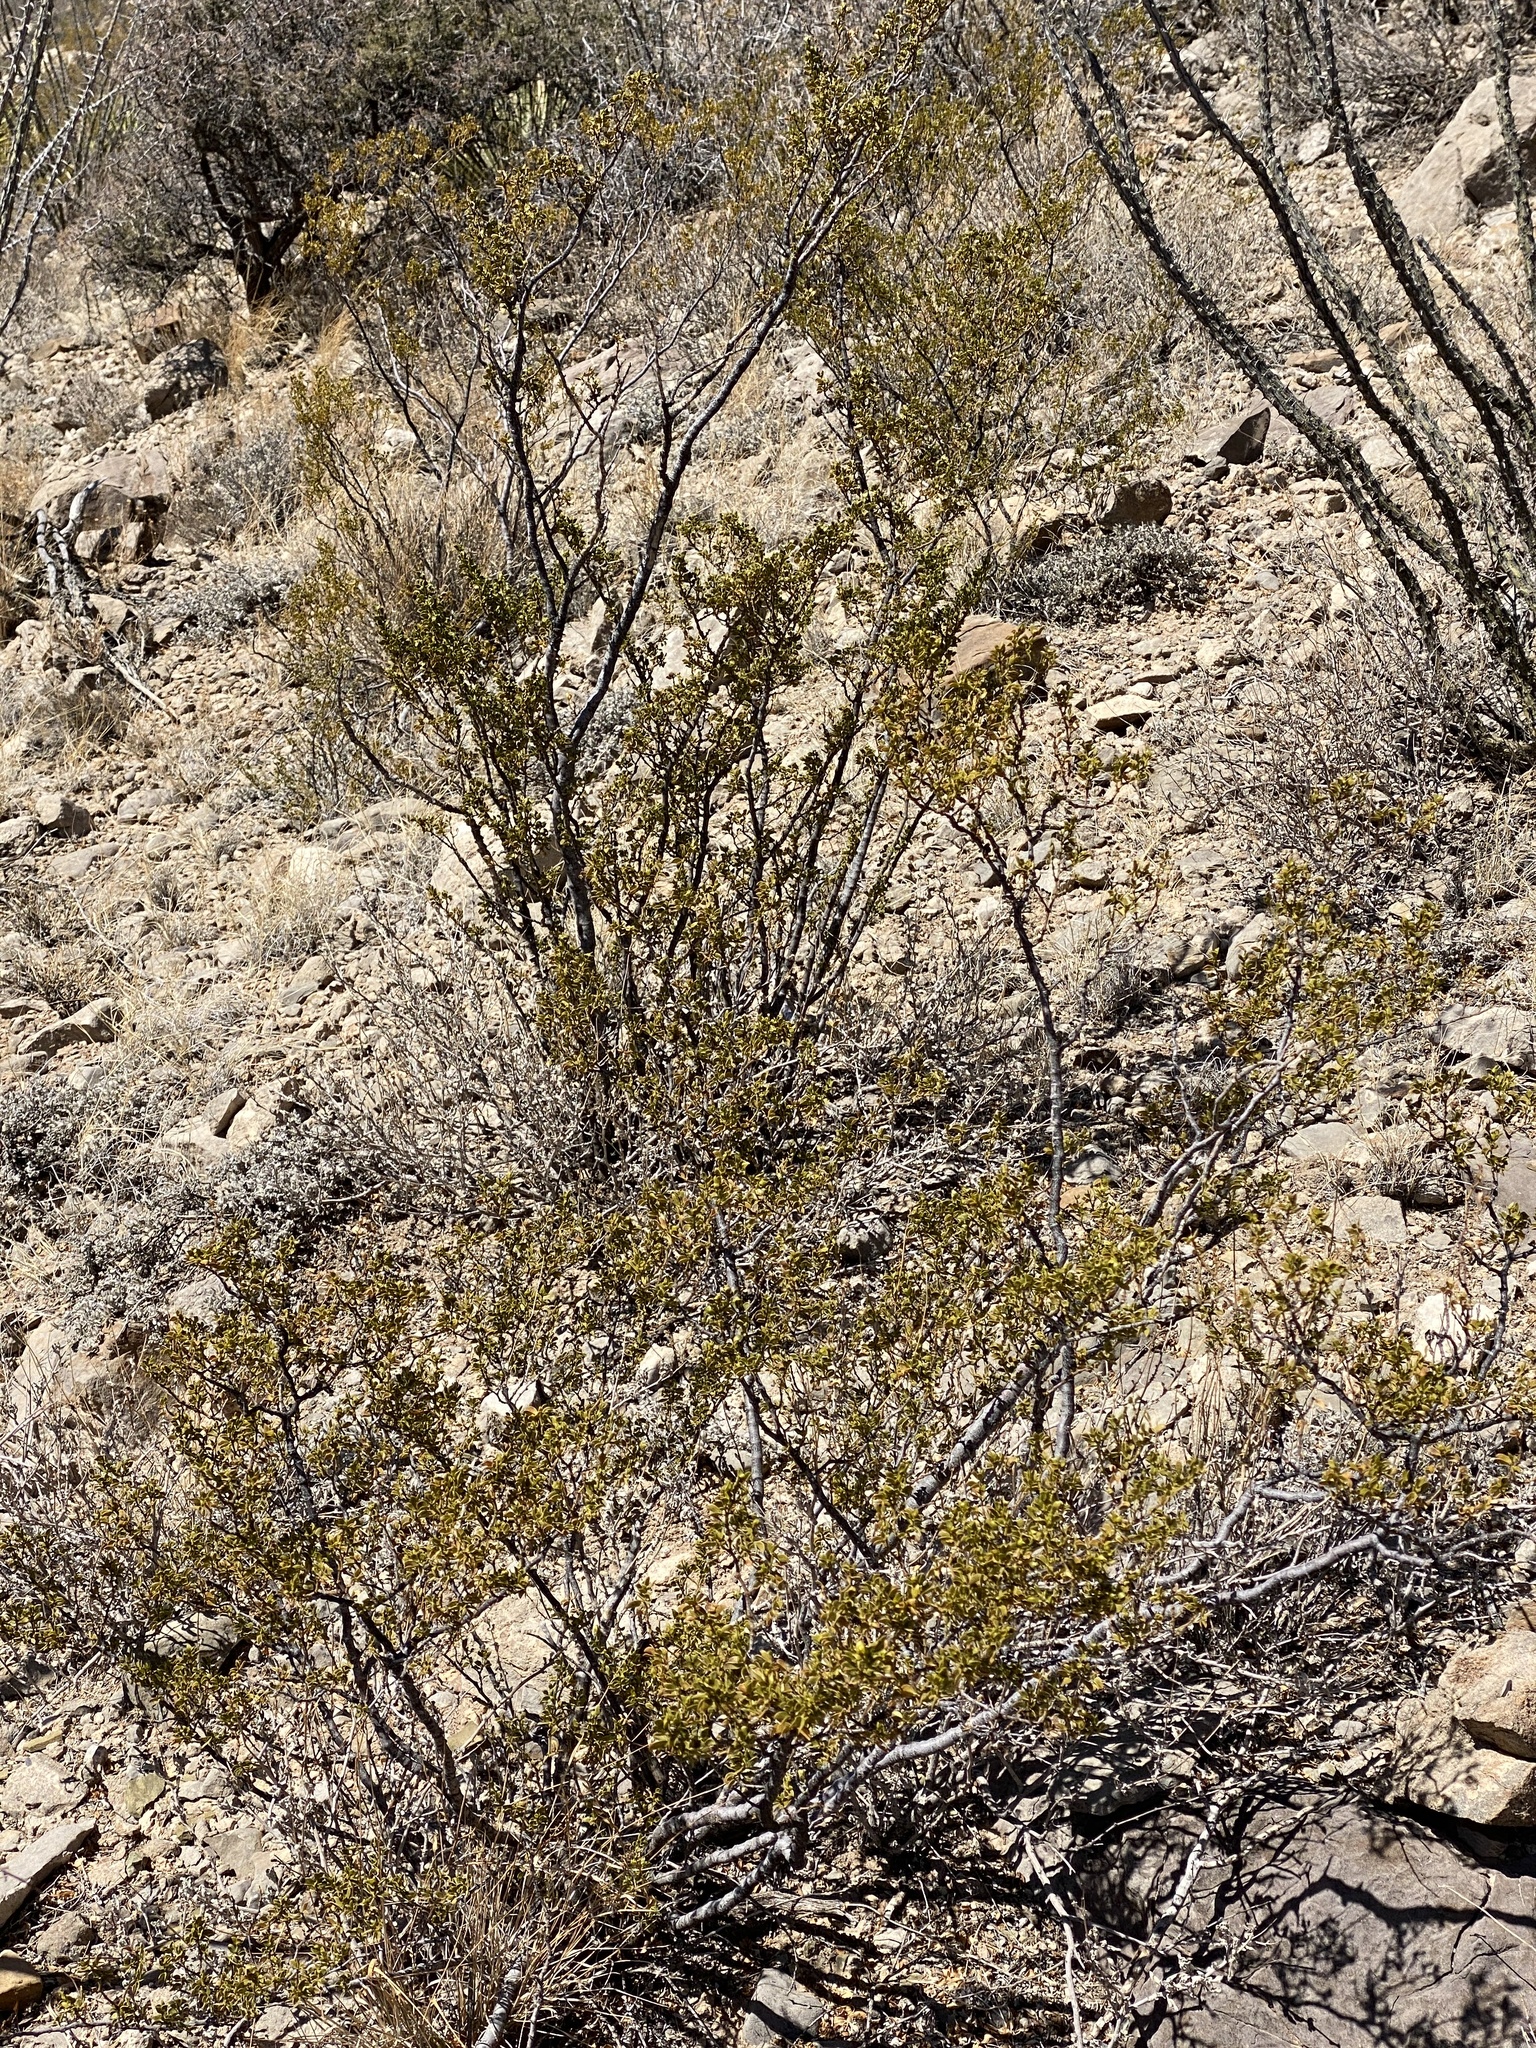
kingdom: Plantae
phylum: Tracheophyta
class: Magnoliopsida
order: Zygophyllales
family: Zygophyllaceae
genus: Larrea
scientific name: Larrea tridentata
